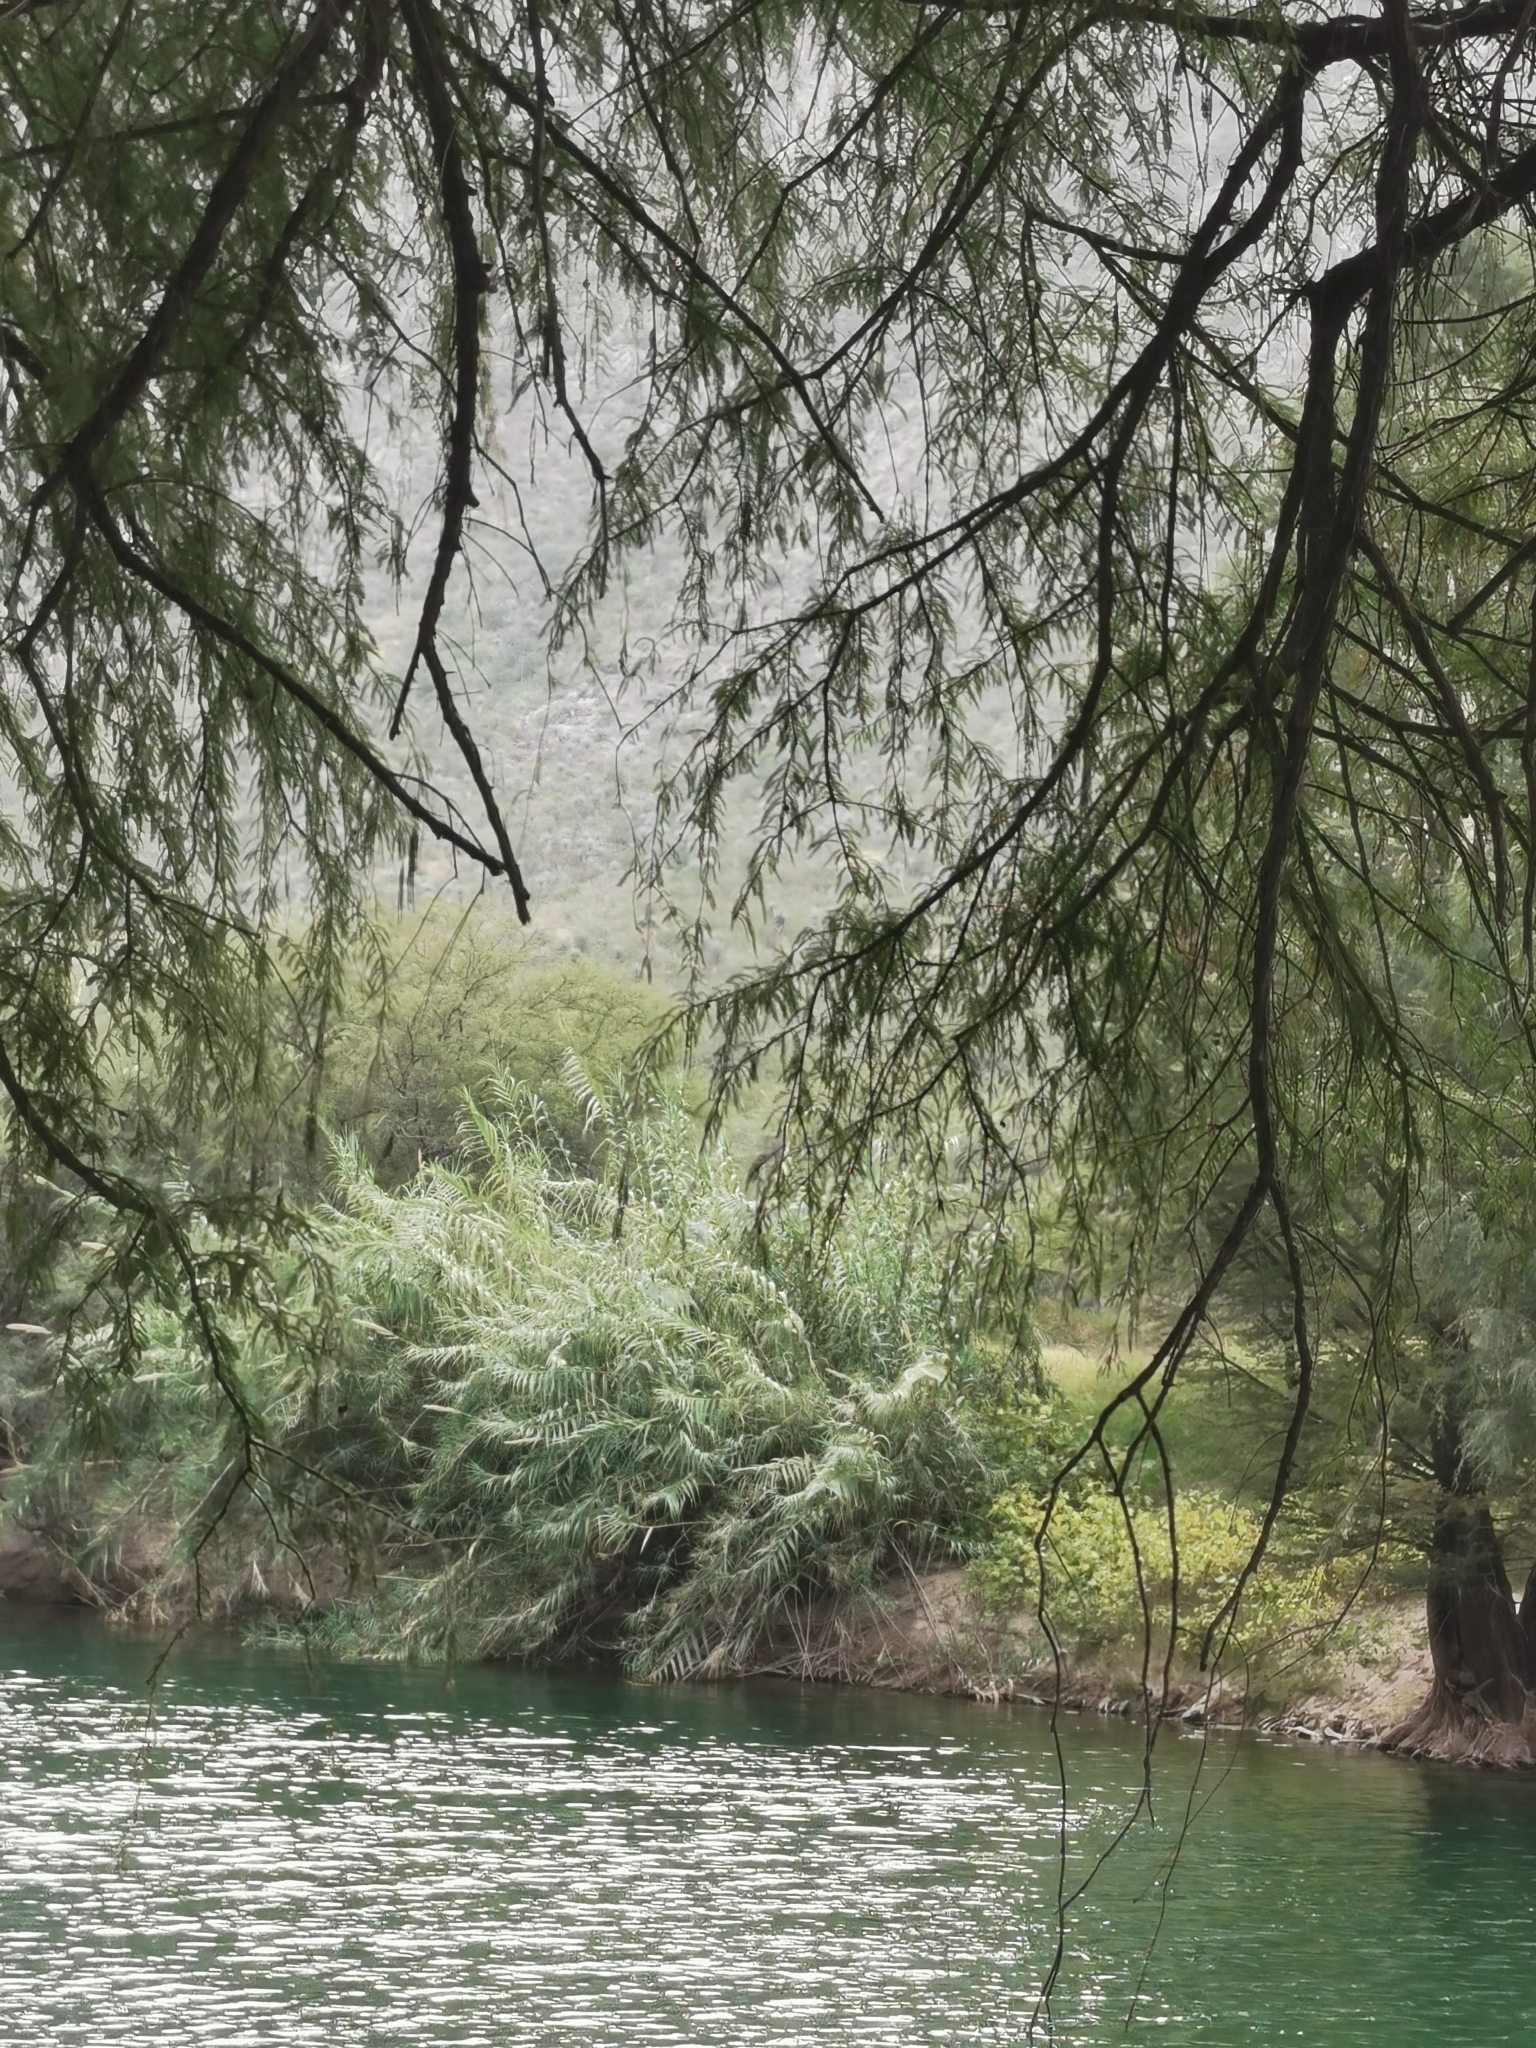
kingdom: Plantae
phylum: Tracheophyta
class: Pinopsida
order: Pinales
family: Cupressaceae
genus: Taxodium
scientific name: Taxodium mucronatum
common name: Montezume bald cypress
